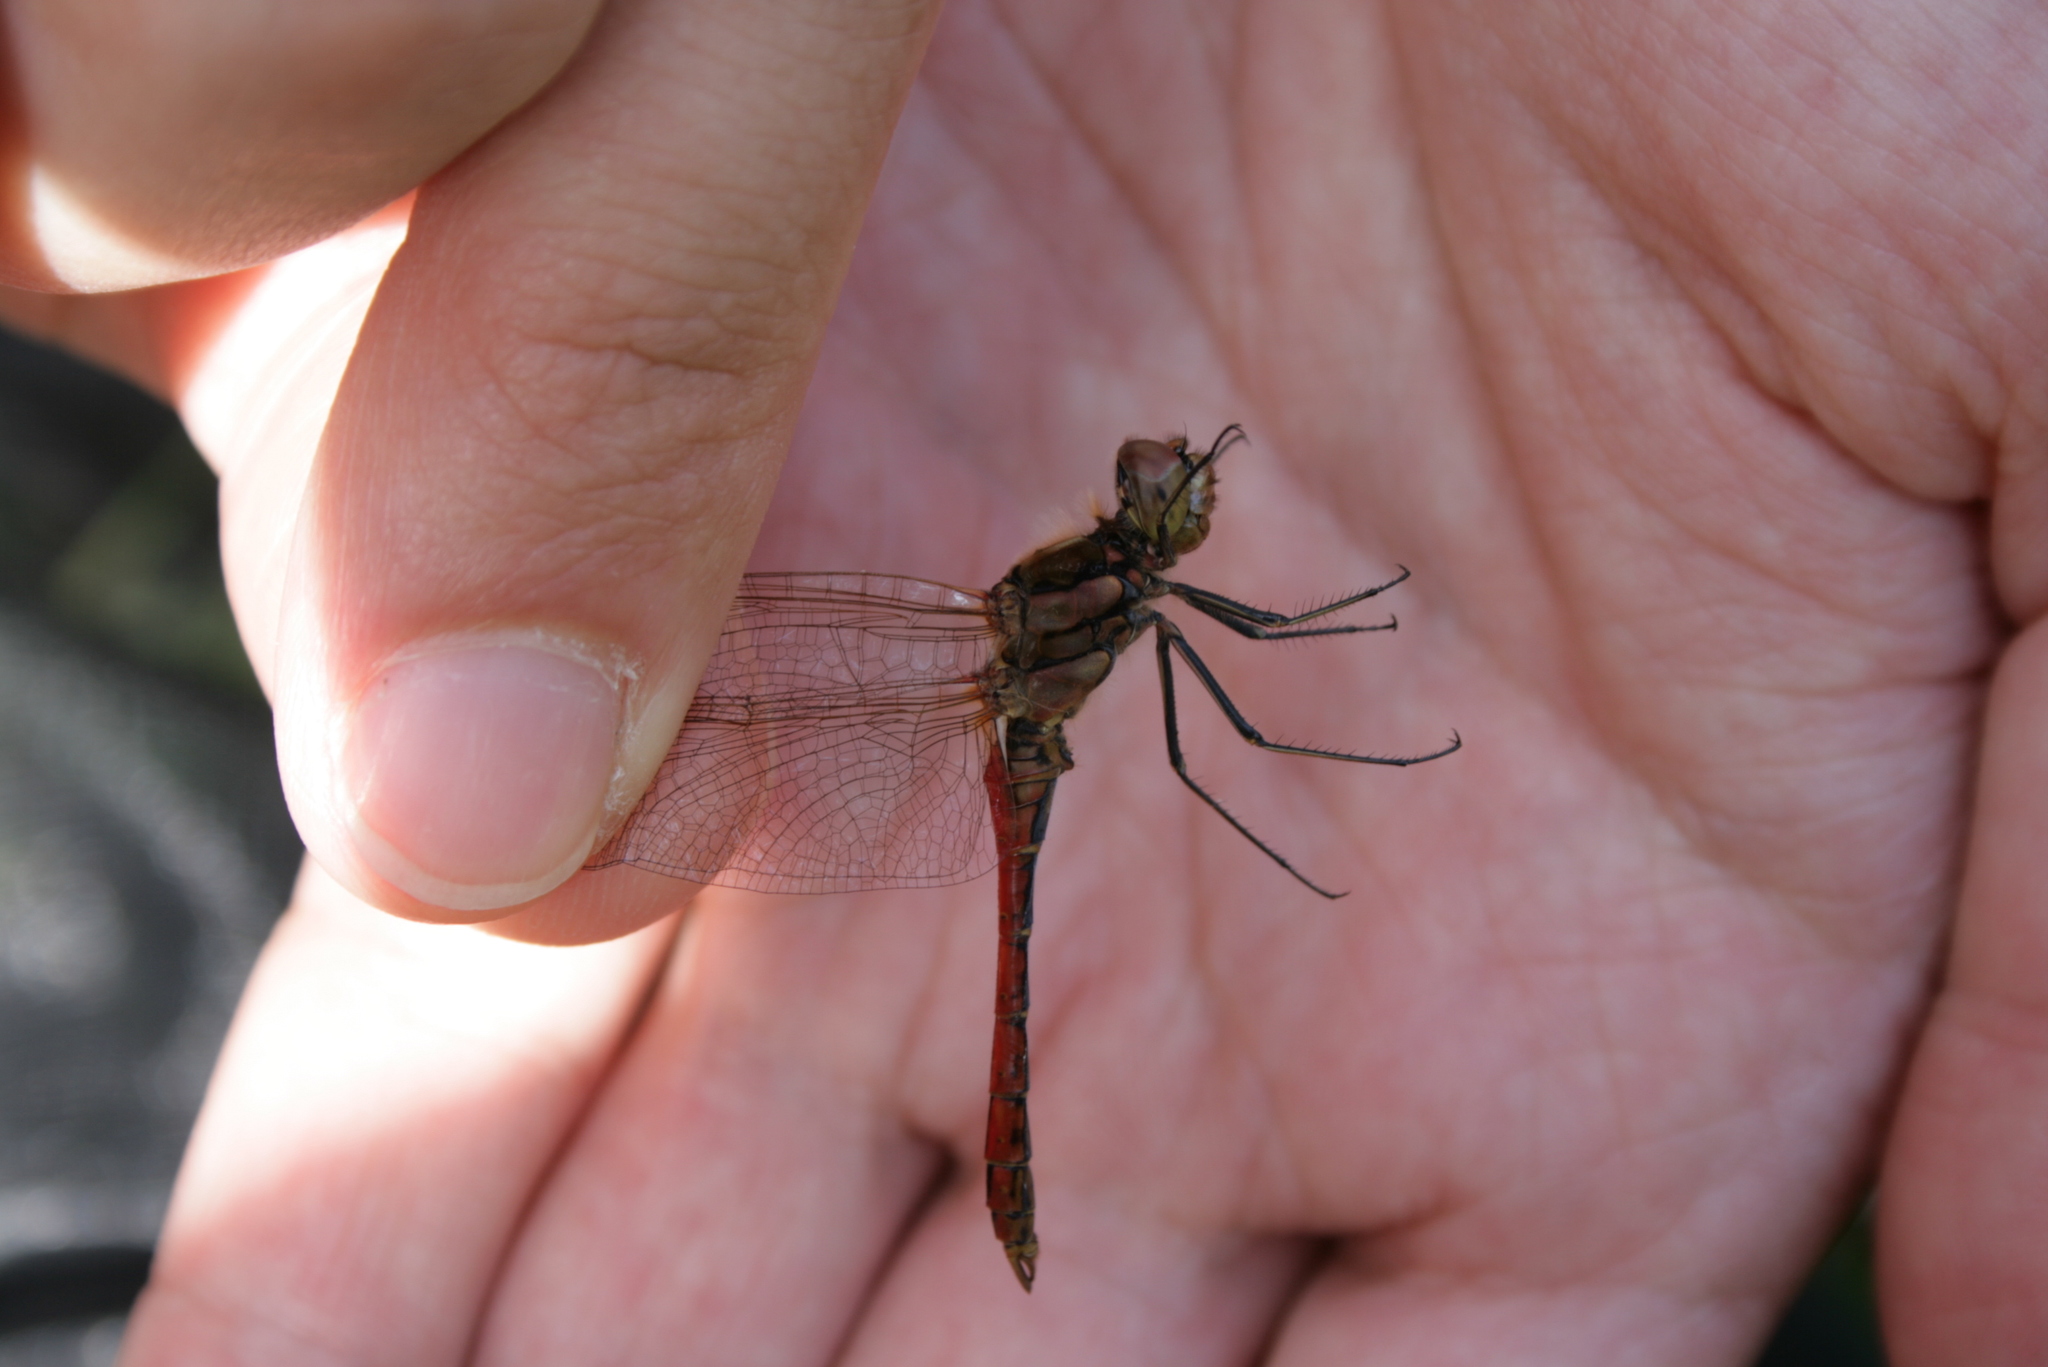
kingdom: Animalia
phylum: Arthropoda
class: Insecta
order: Odonata
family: Libellulidae
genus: Sympetrum
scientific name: Sympetrum vulgatum
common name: Vagrant darter
